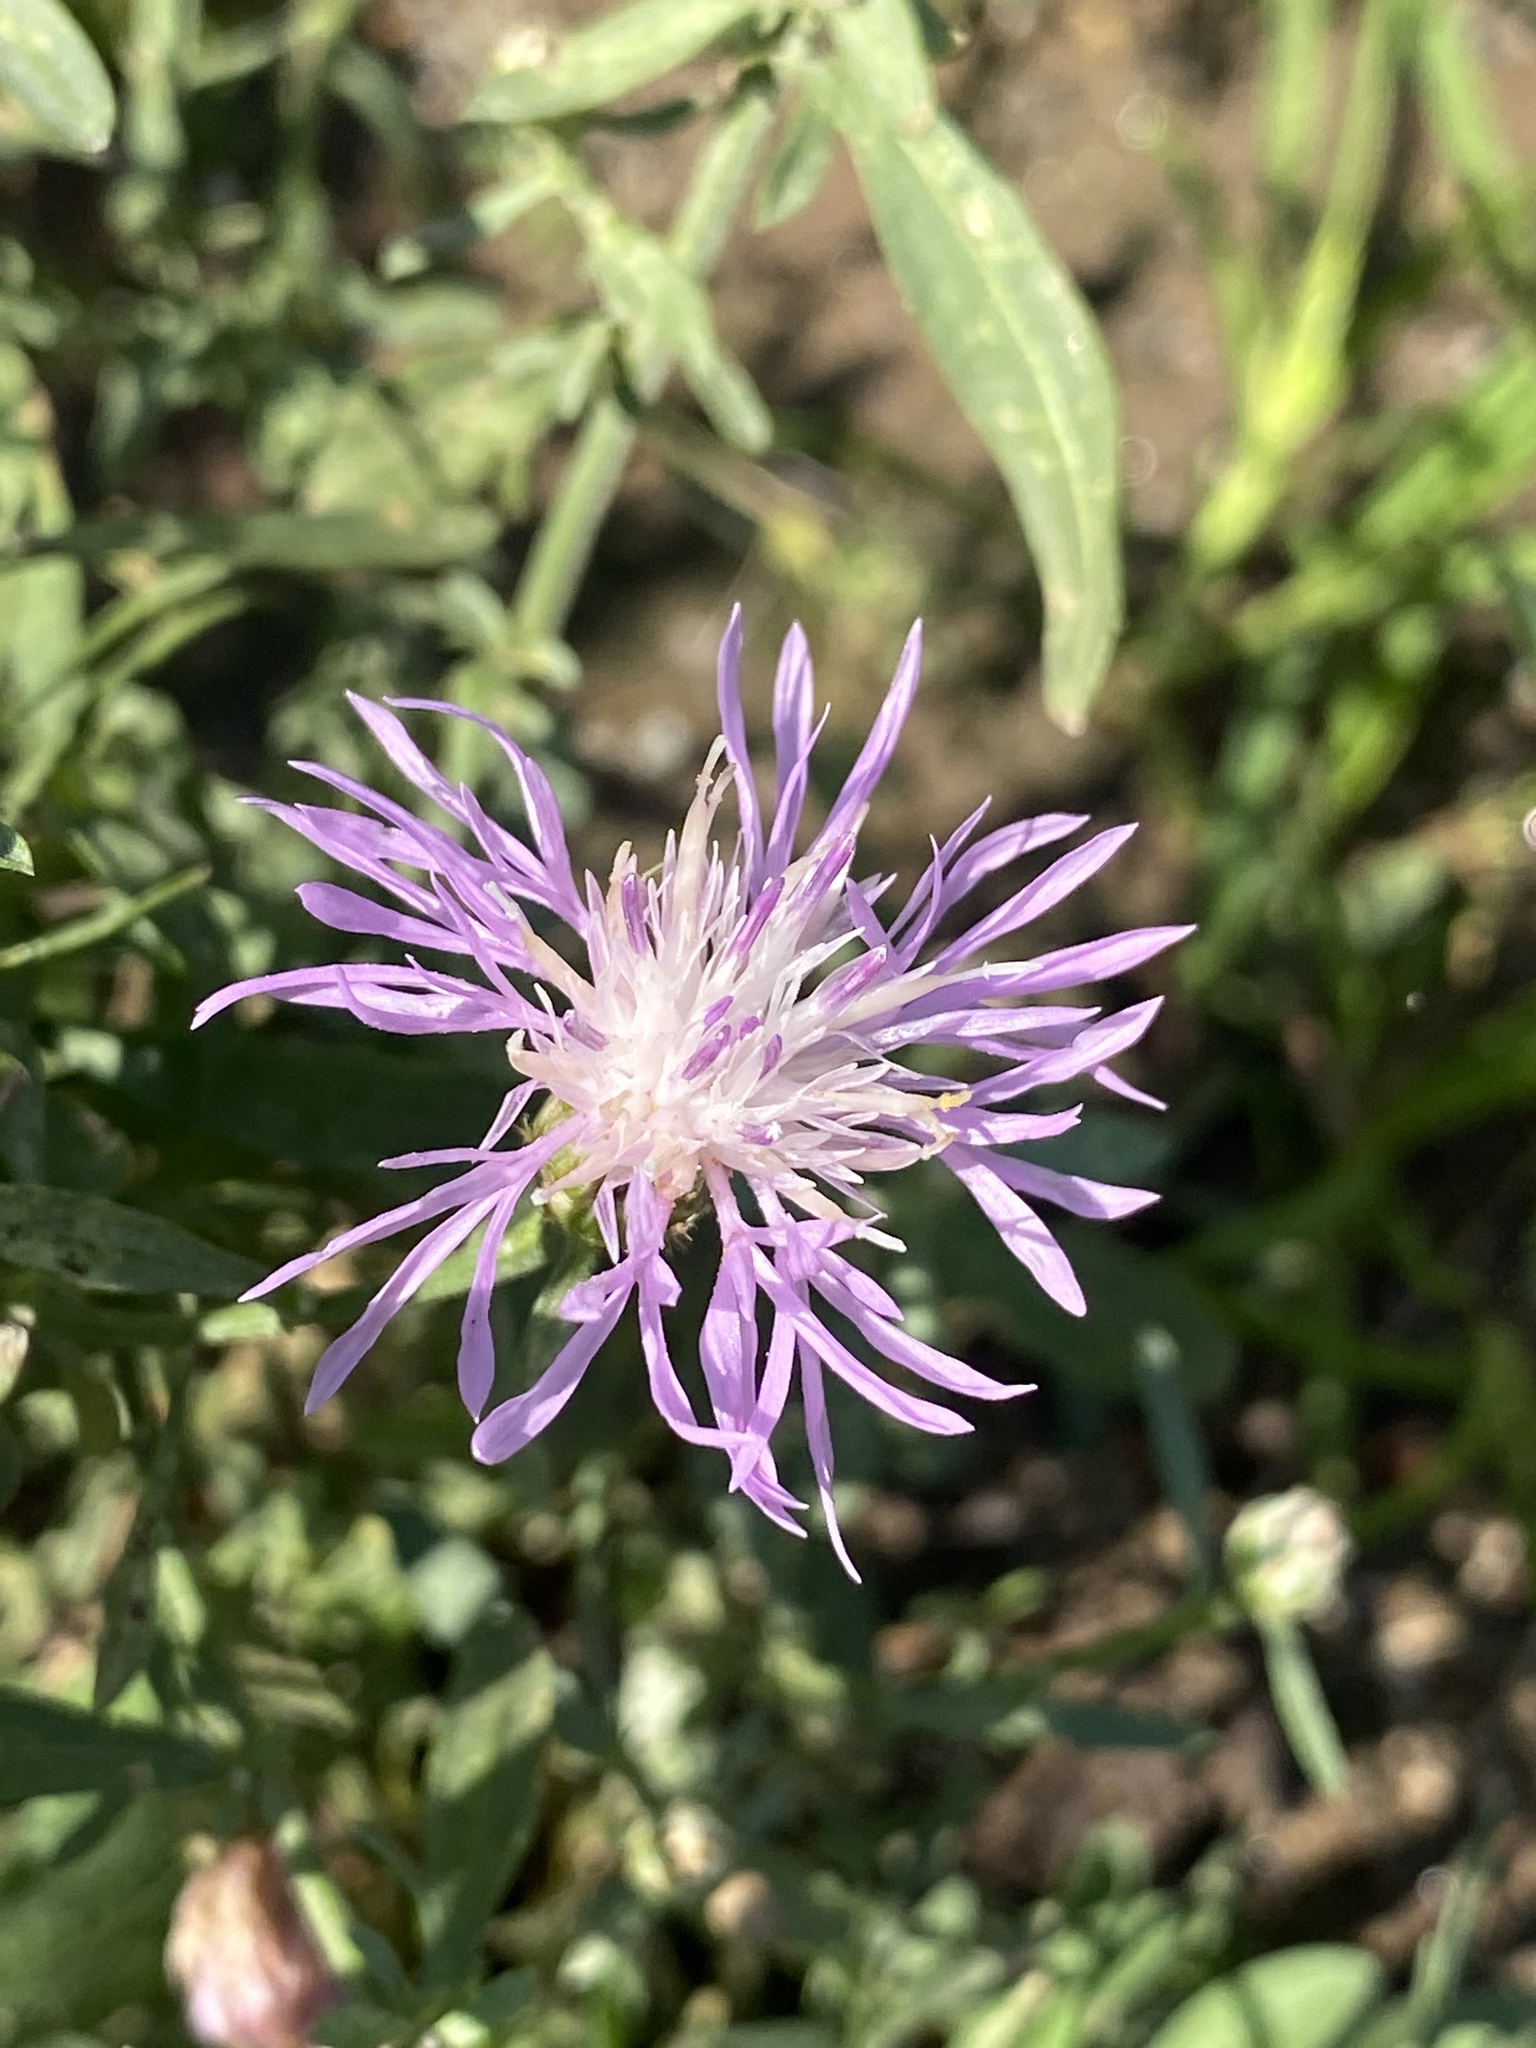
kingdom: Plantae
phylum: Tracheophyta
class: Magnoliopsida
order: Asterales
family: Asteraceae
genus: Centaurea
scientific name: Centaurea stoebe
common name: Spotted knapweed
